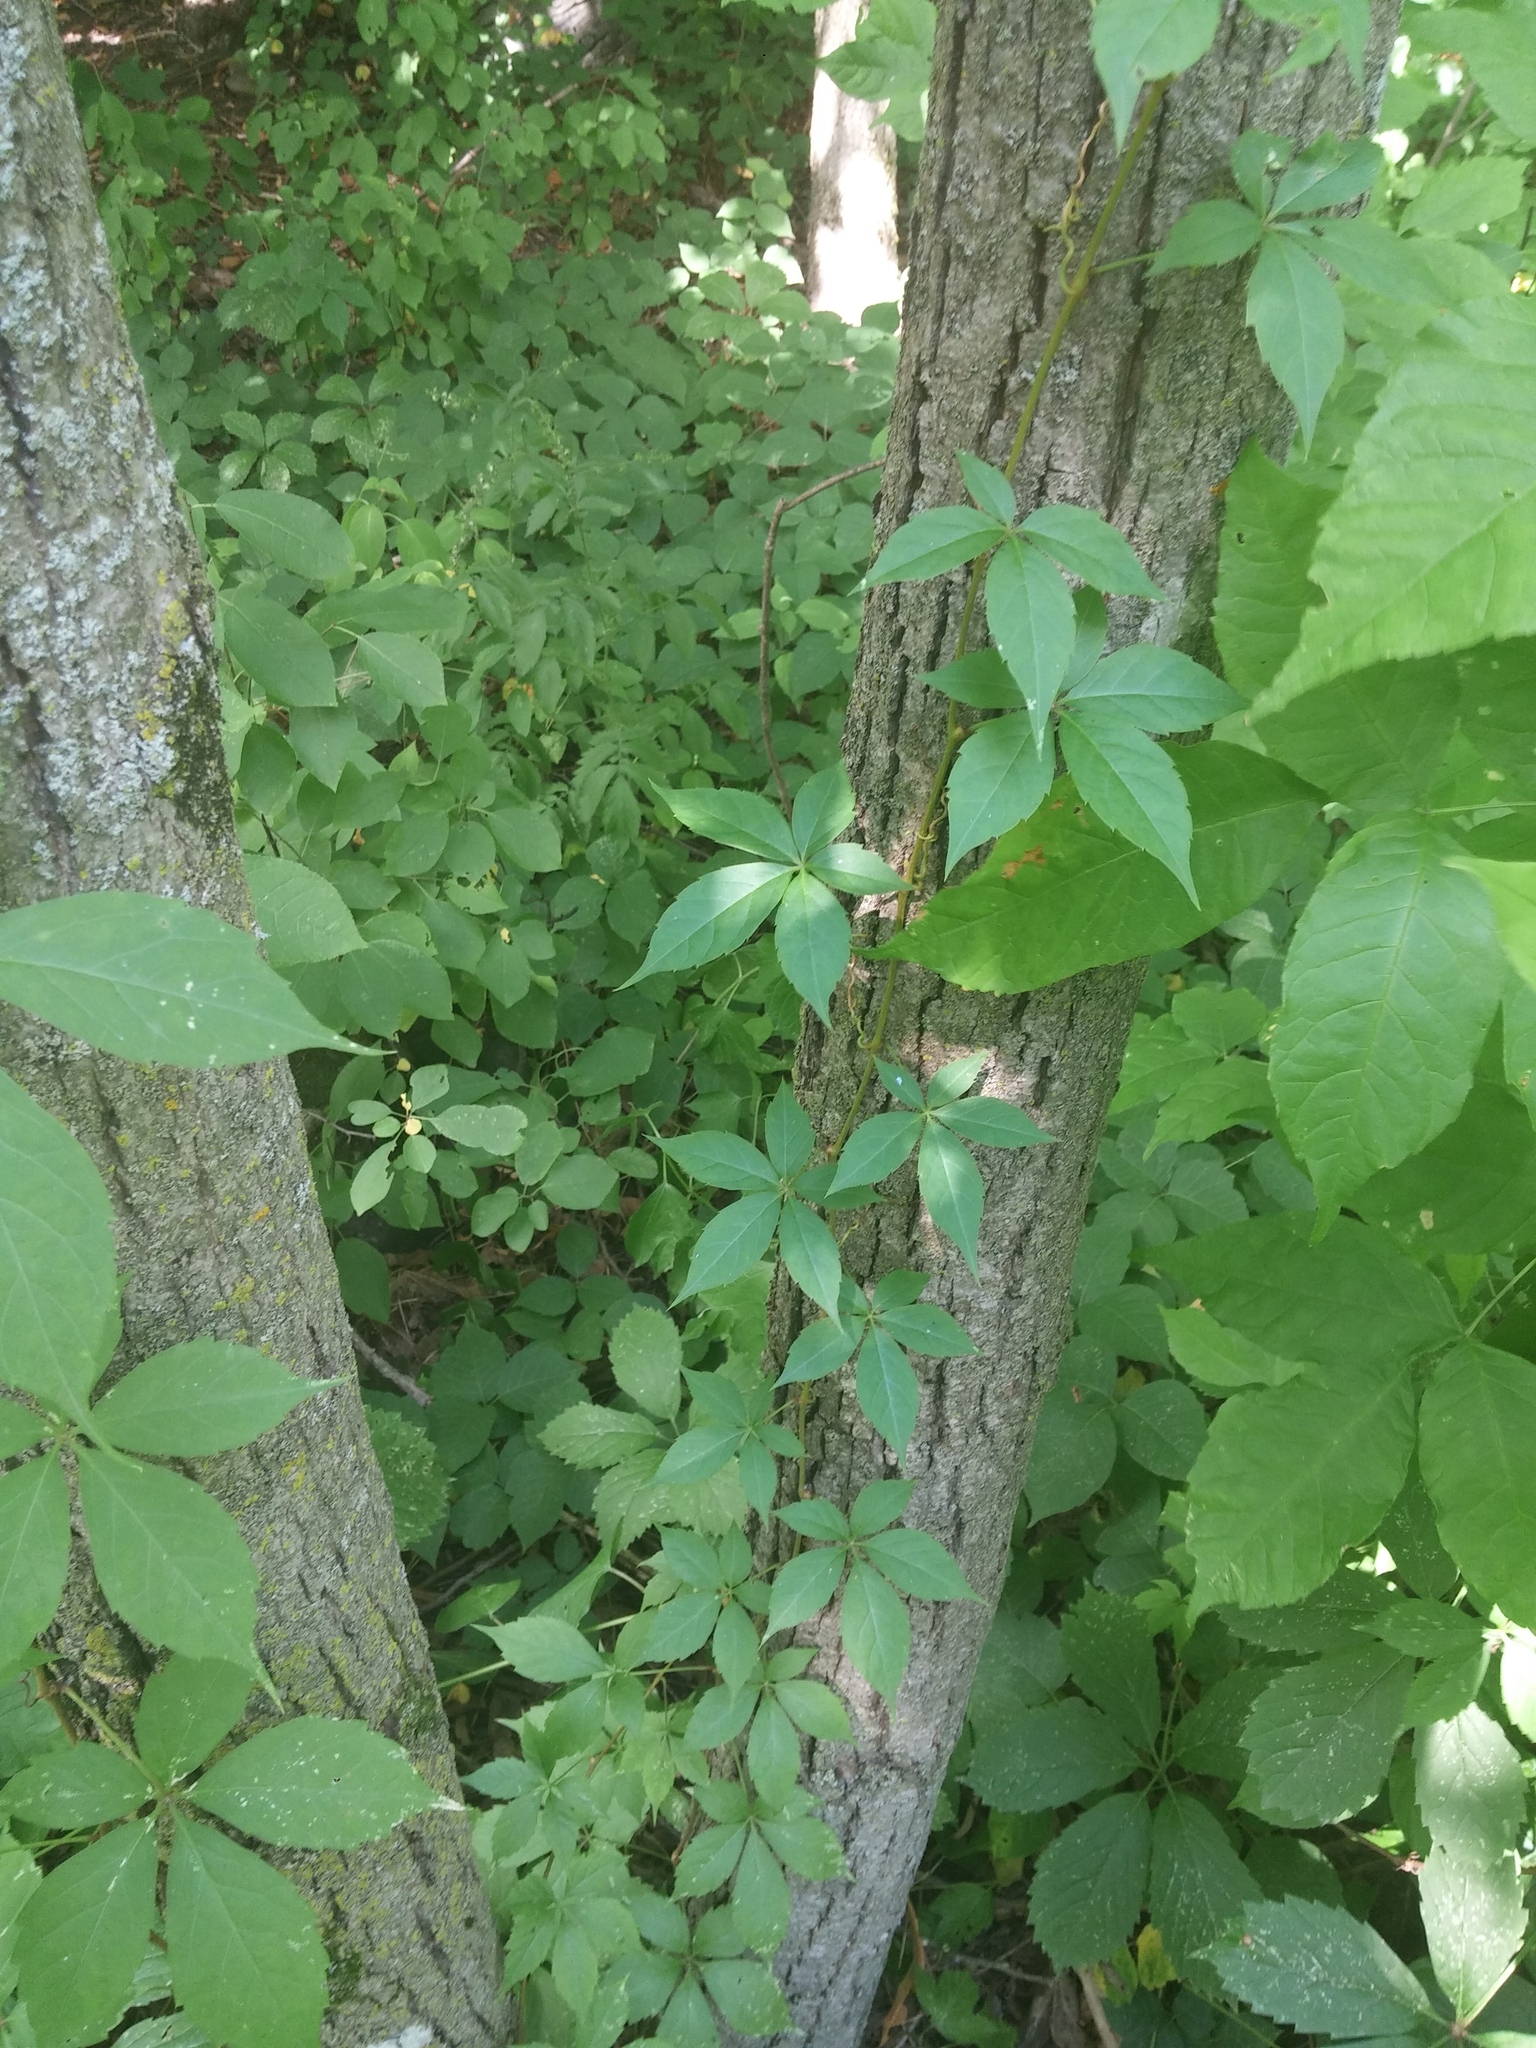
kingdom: Plantae
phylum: Tracheophyta
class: Magnoliopsida
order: Vitales
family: Vitaceae
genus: Parthenocissus
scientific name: Parthenocissus quinquefolia
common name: Virginia-creeper
